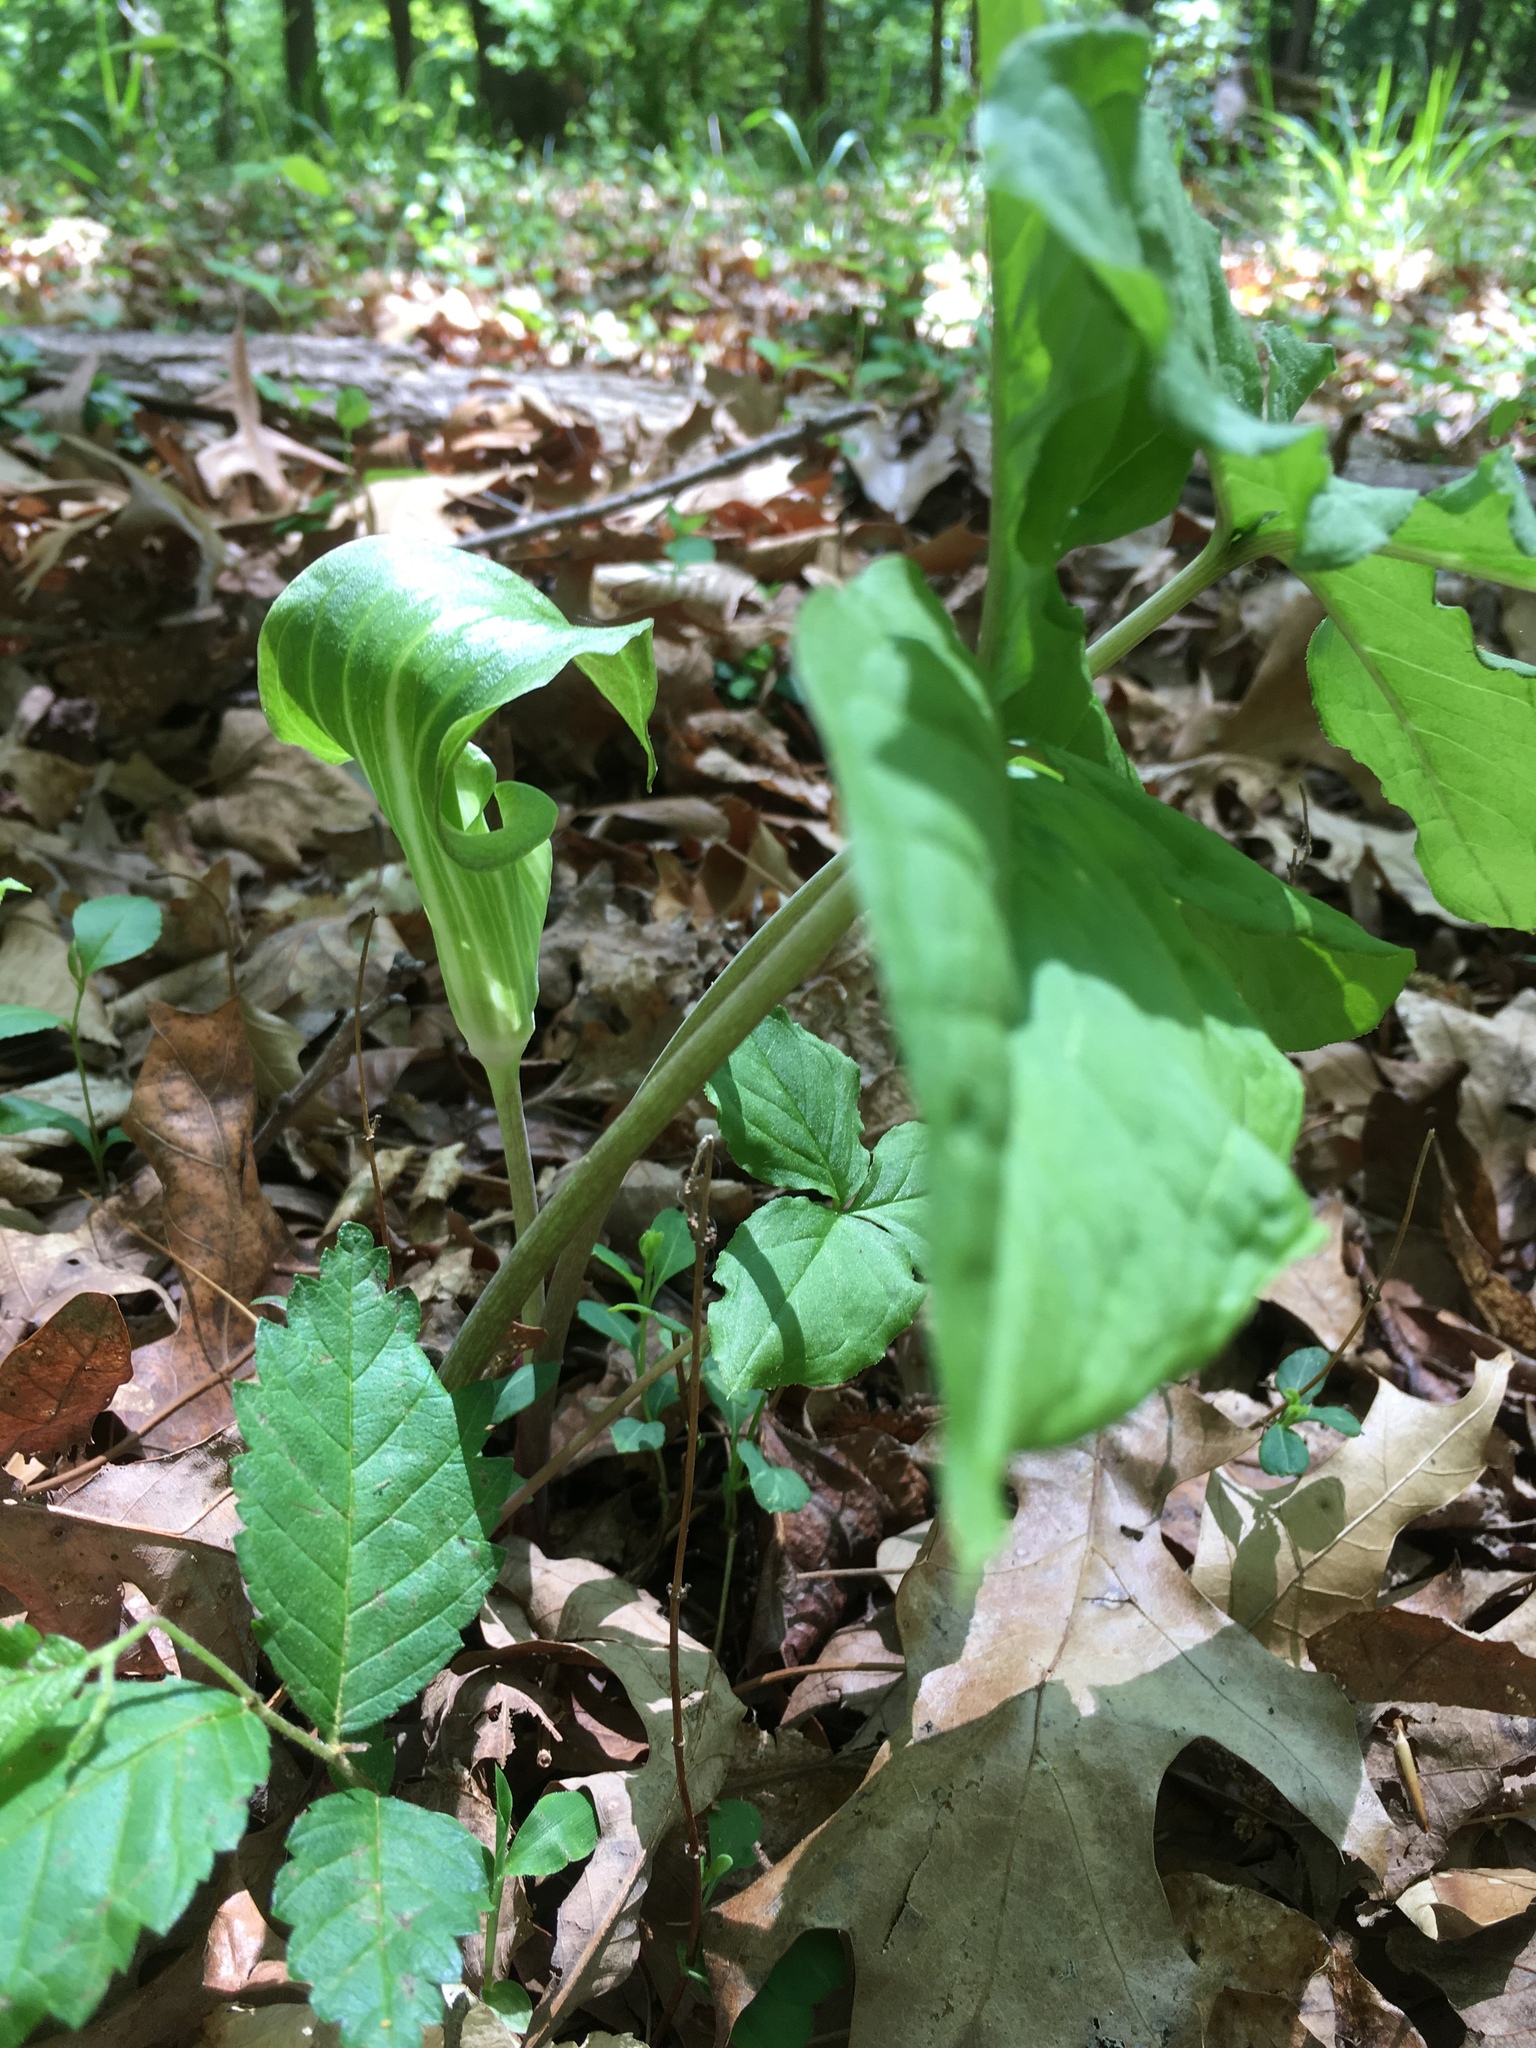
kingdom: Plantae
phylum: Tracheophyta
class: Liliopsida
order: Alismatales
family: Araceae
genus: Arisaema
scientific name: Arisaema triphyllum
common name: Jack-in-the-pulpit
